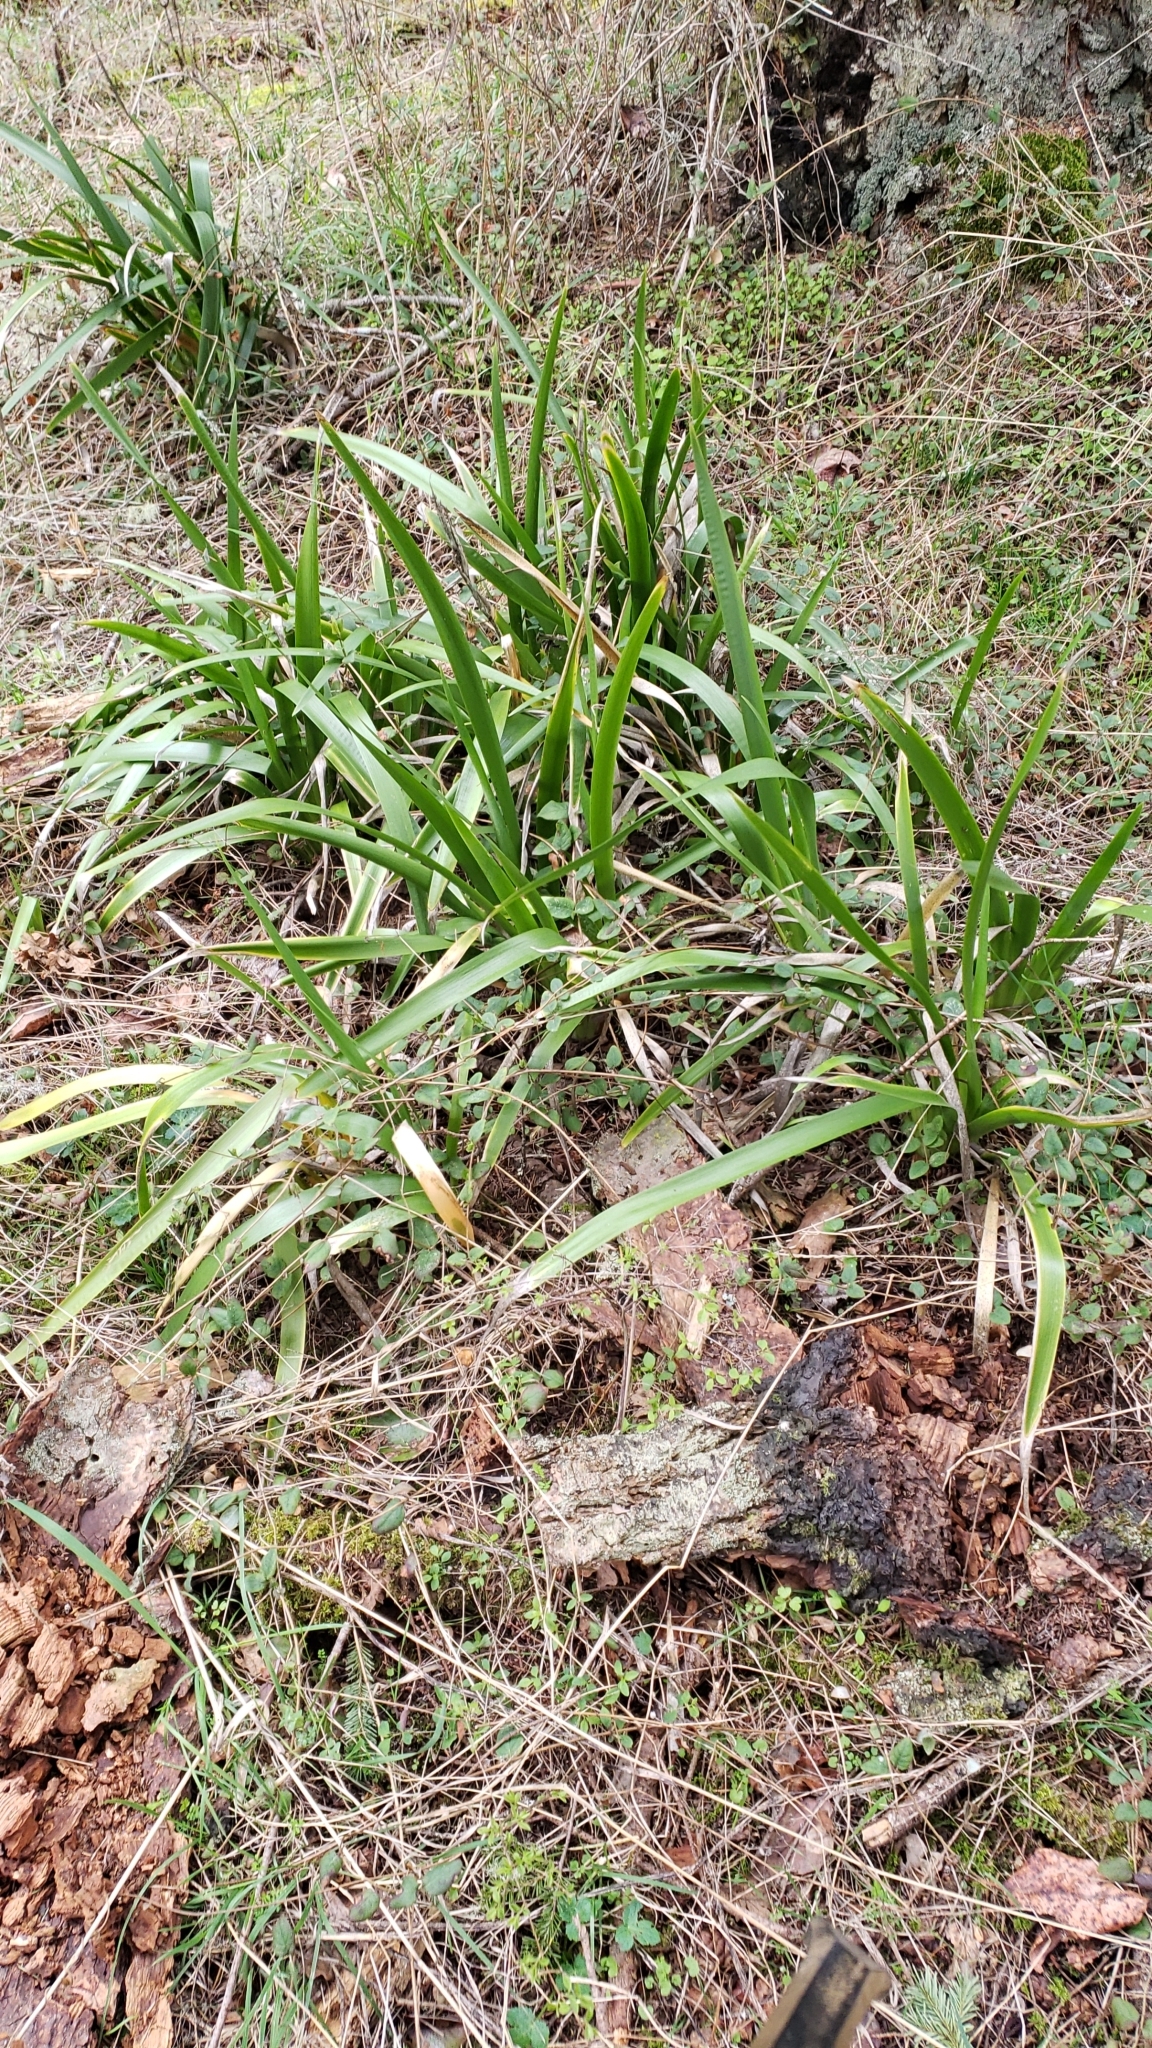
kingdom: Plantae
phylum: Tracheophyta
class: Liliopsida
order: Asparagales
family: Iridaceae
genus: Iris
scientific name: Iris foetidissima
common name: Stinking iris
